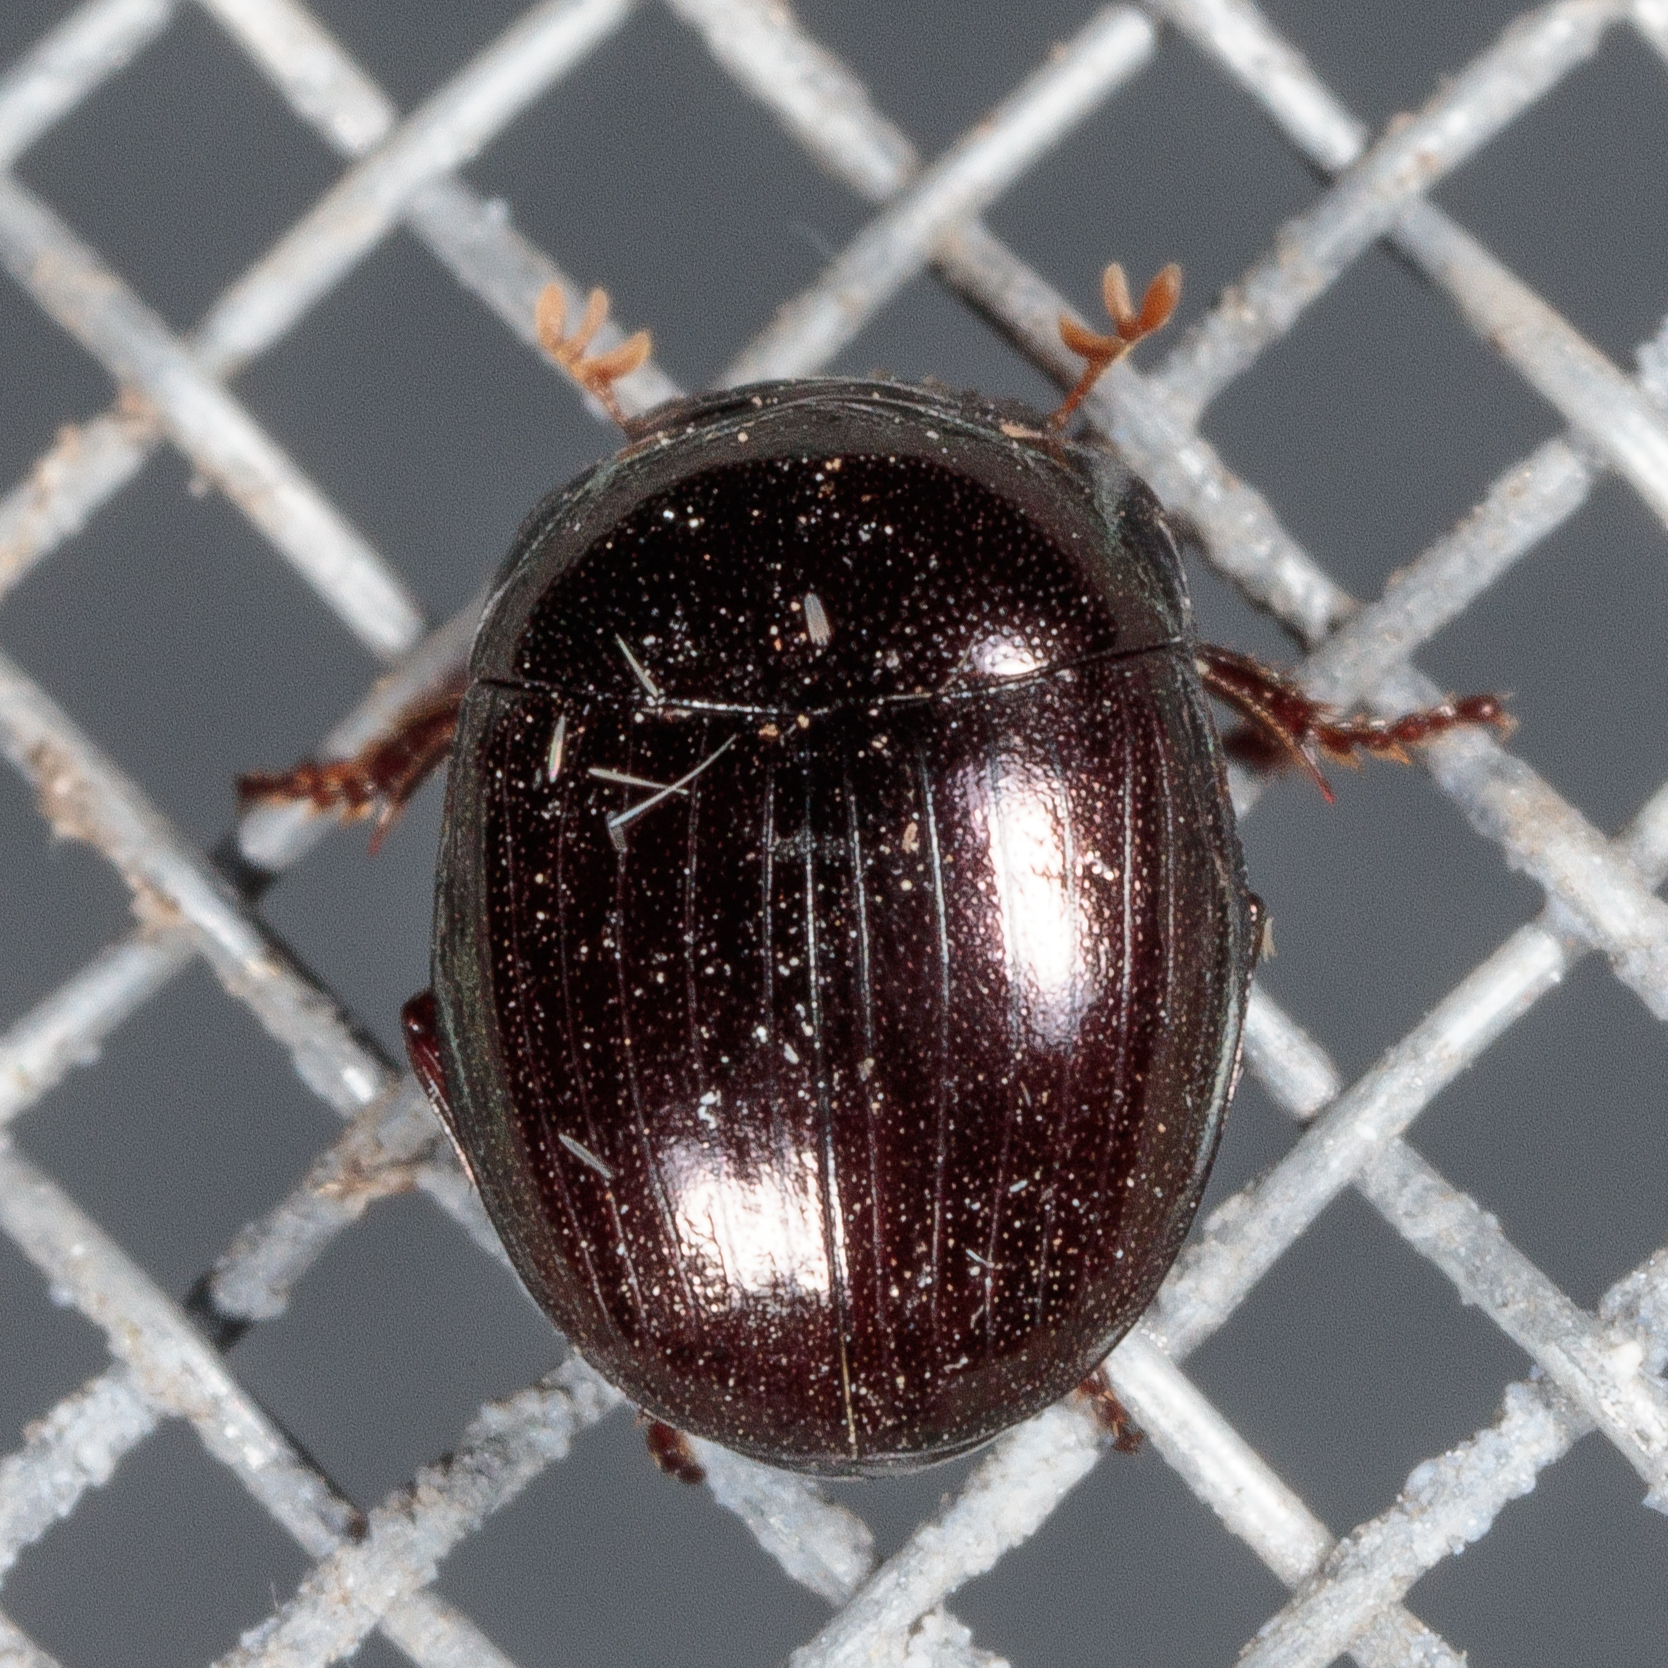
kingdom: Animalia
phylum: Arthropoda
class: Insecta
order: Coleoptera
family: Scarabaeidae
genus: Pseudocanthon
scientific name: Pseudocanthon perplexus
